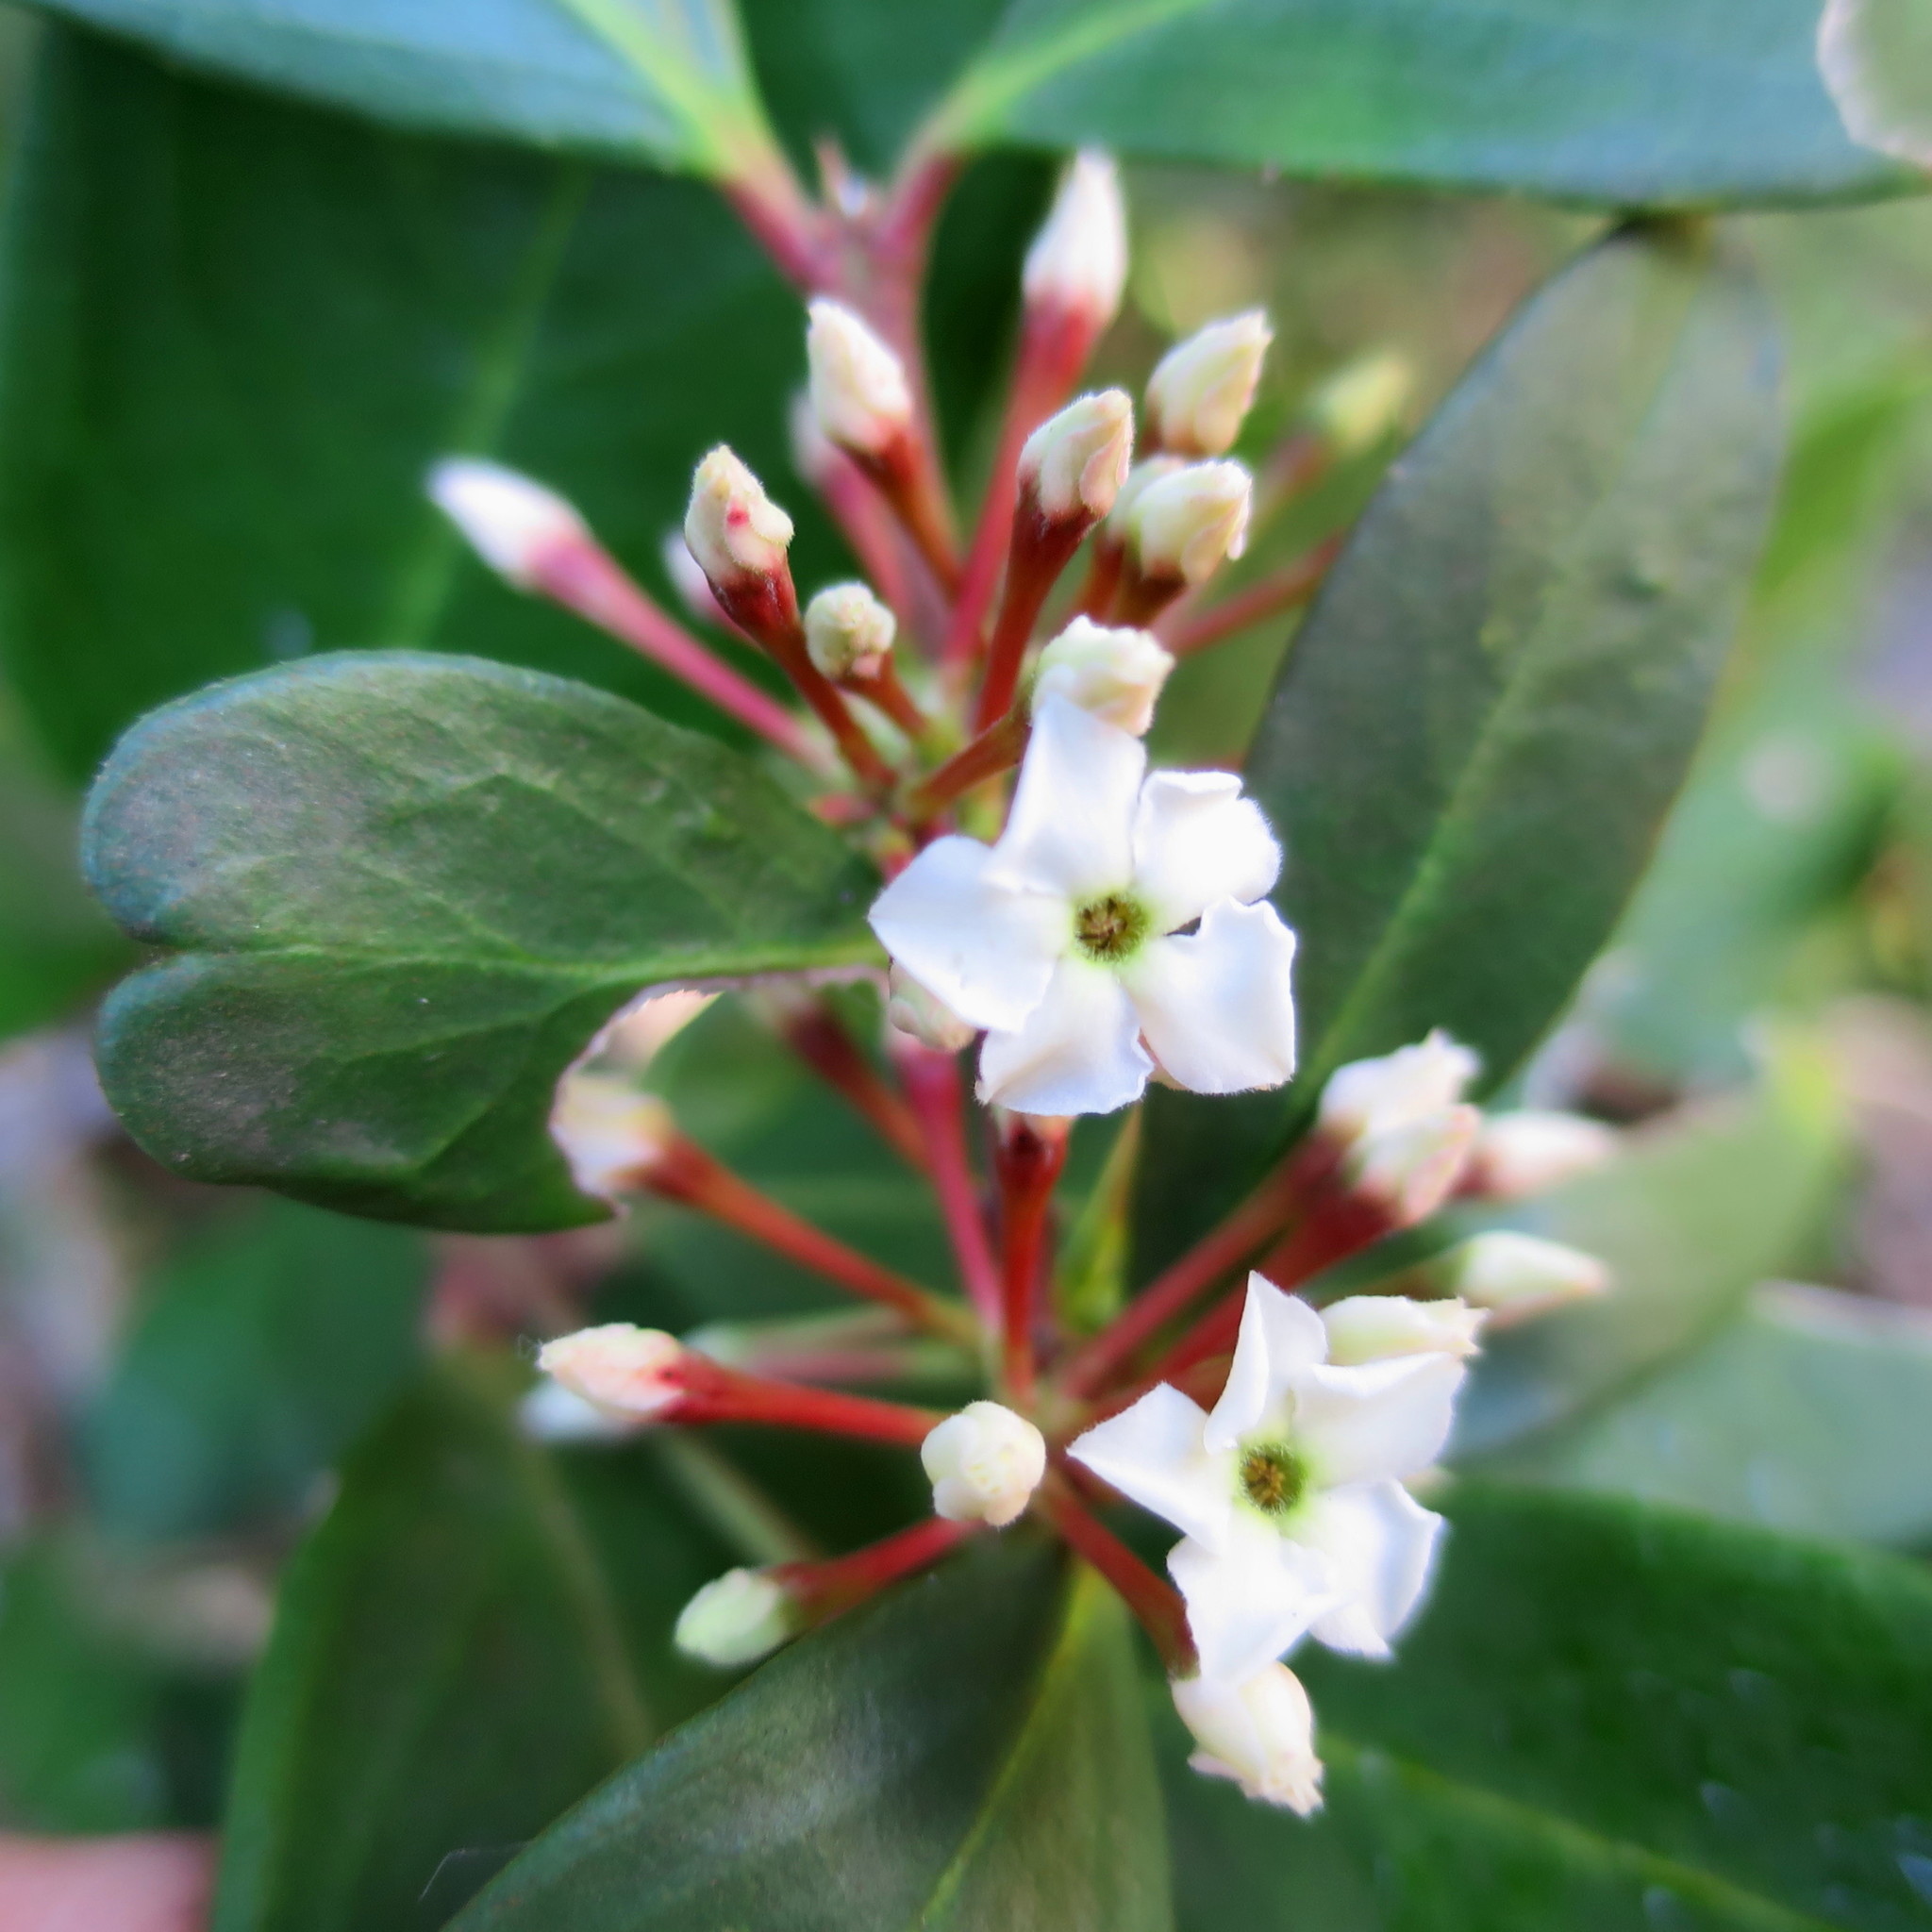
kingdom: Plantae
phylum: Tracheophyta
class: Magnoliopsida
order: Gentianales
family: Apocynaceae
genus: Acokanthera
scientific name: Acokanthera oppositifolia
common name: Bushman's-poison
